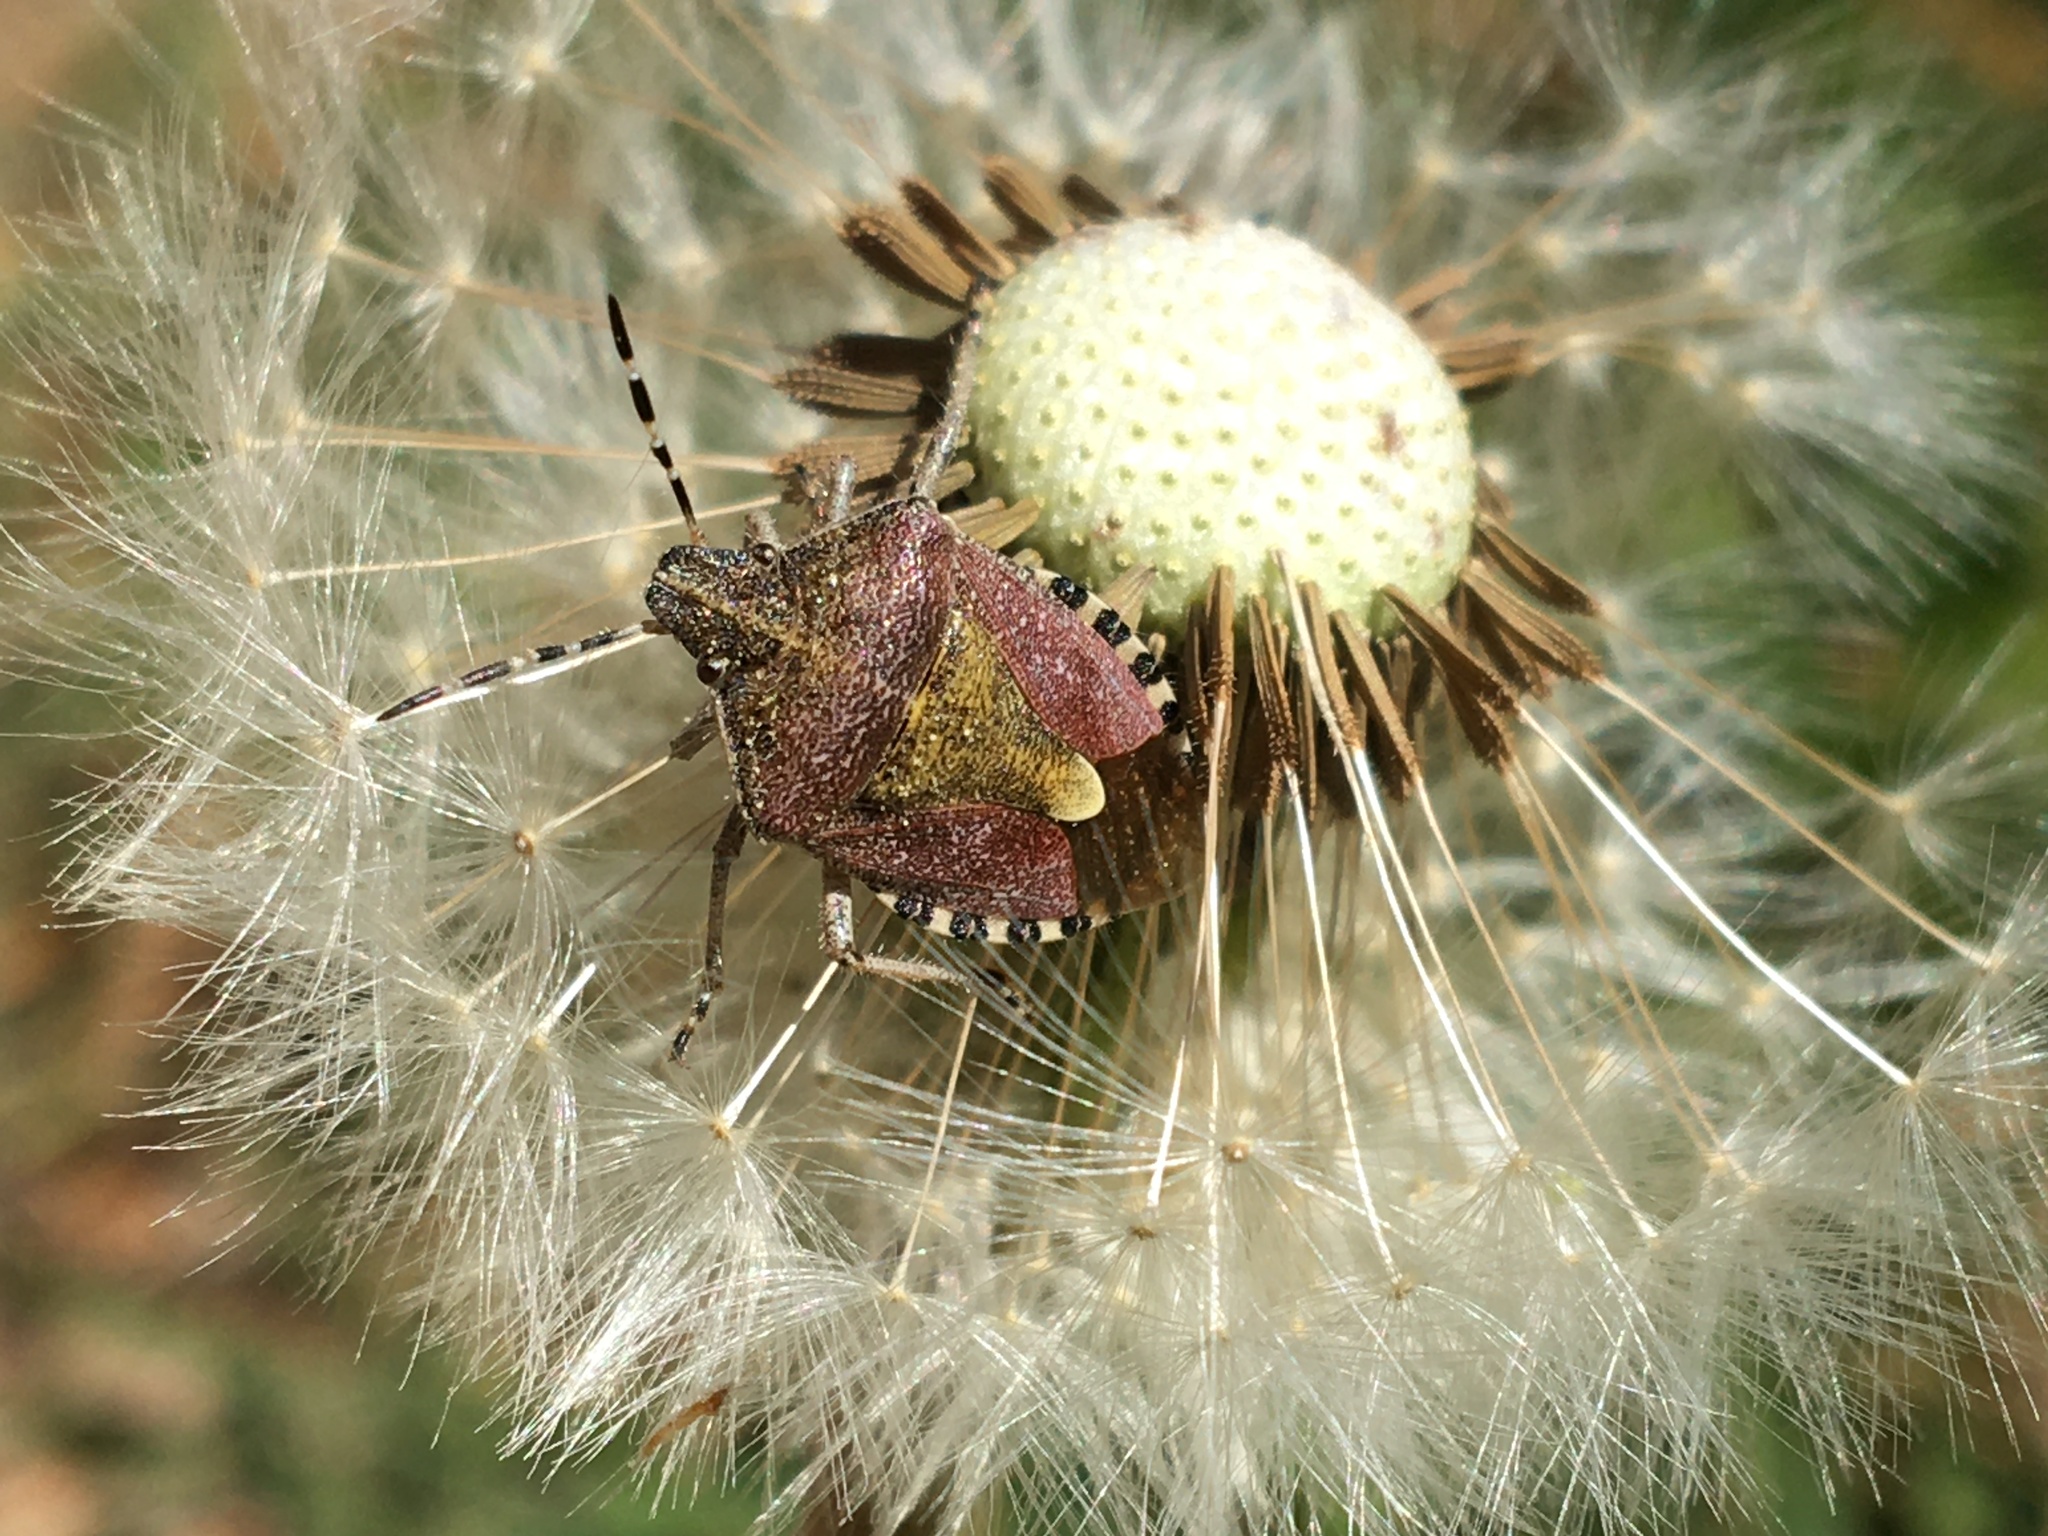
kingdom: Animalia
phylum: Arthropoda
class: Insecta
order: Hemiptera
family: Pentatomidae
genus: Dolycoris
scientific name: Dolycoris baccarum
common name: Sloe bug
